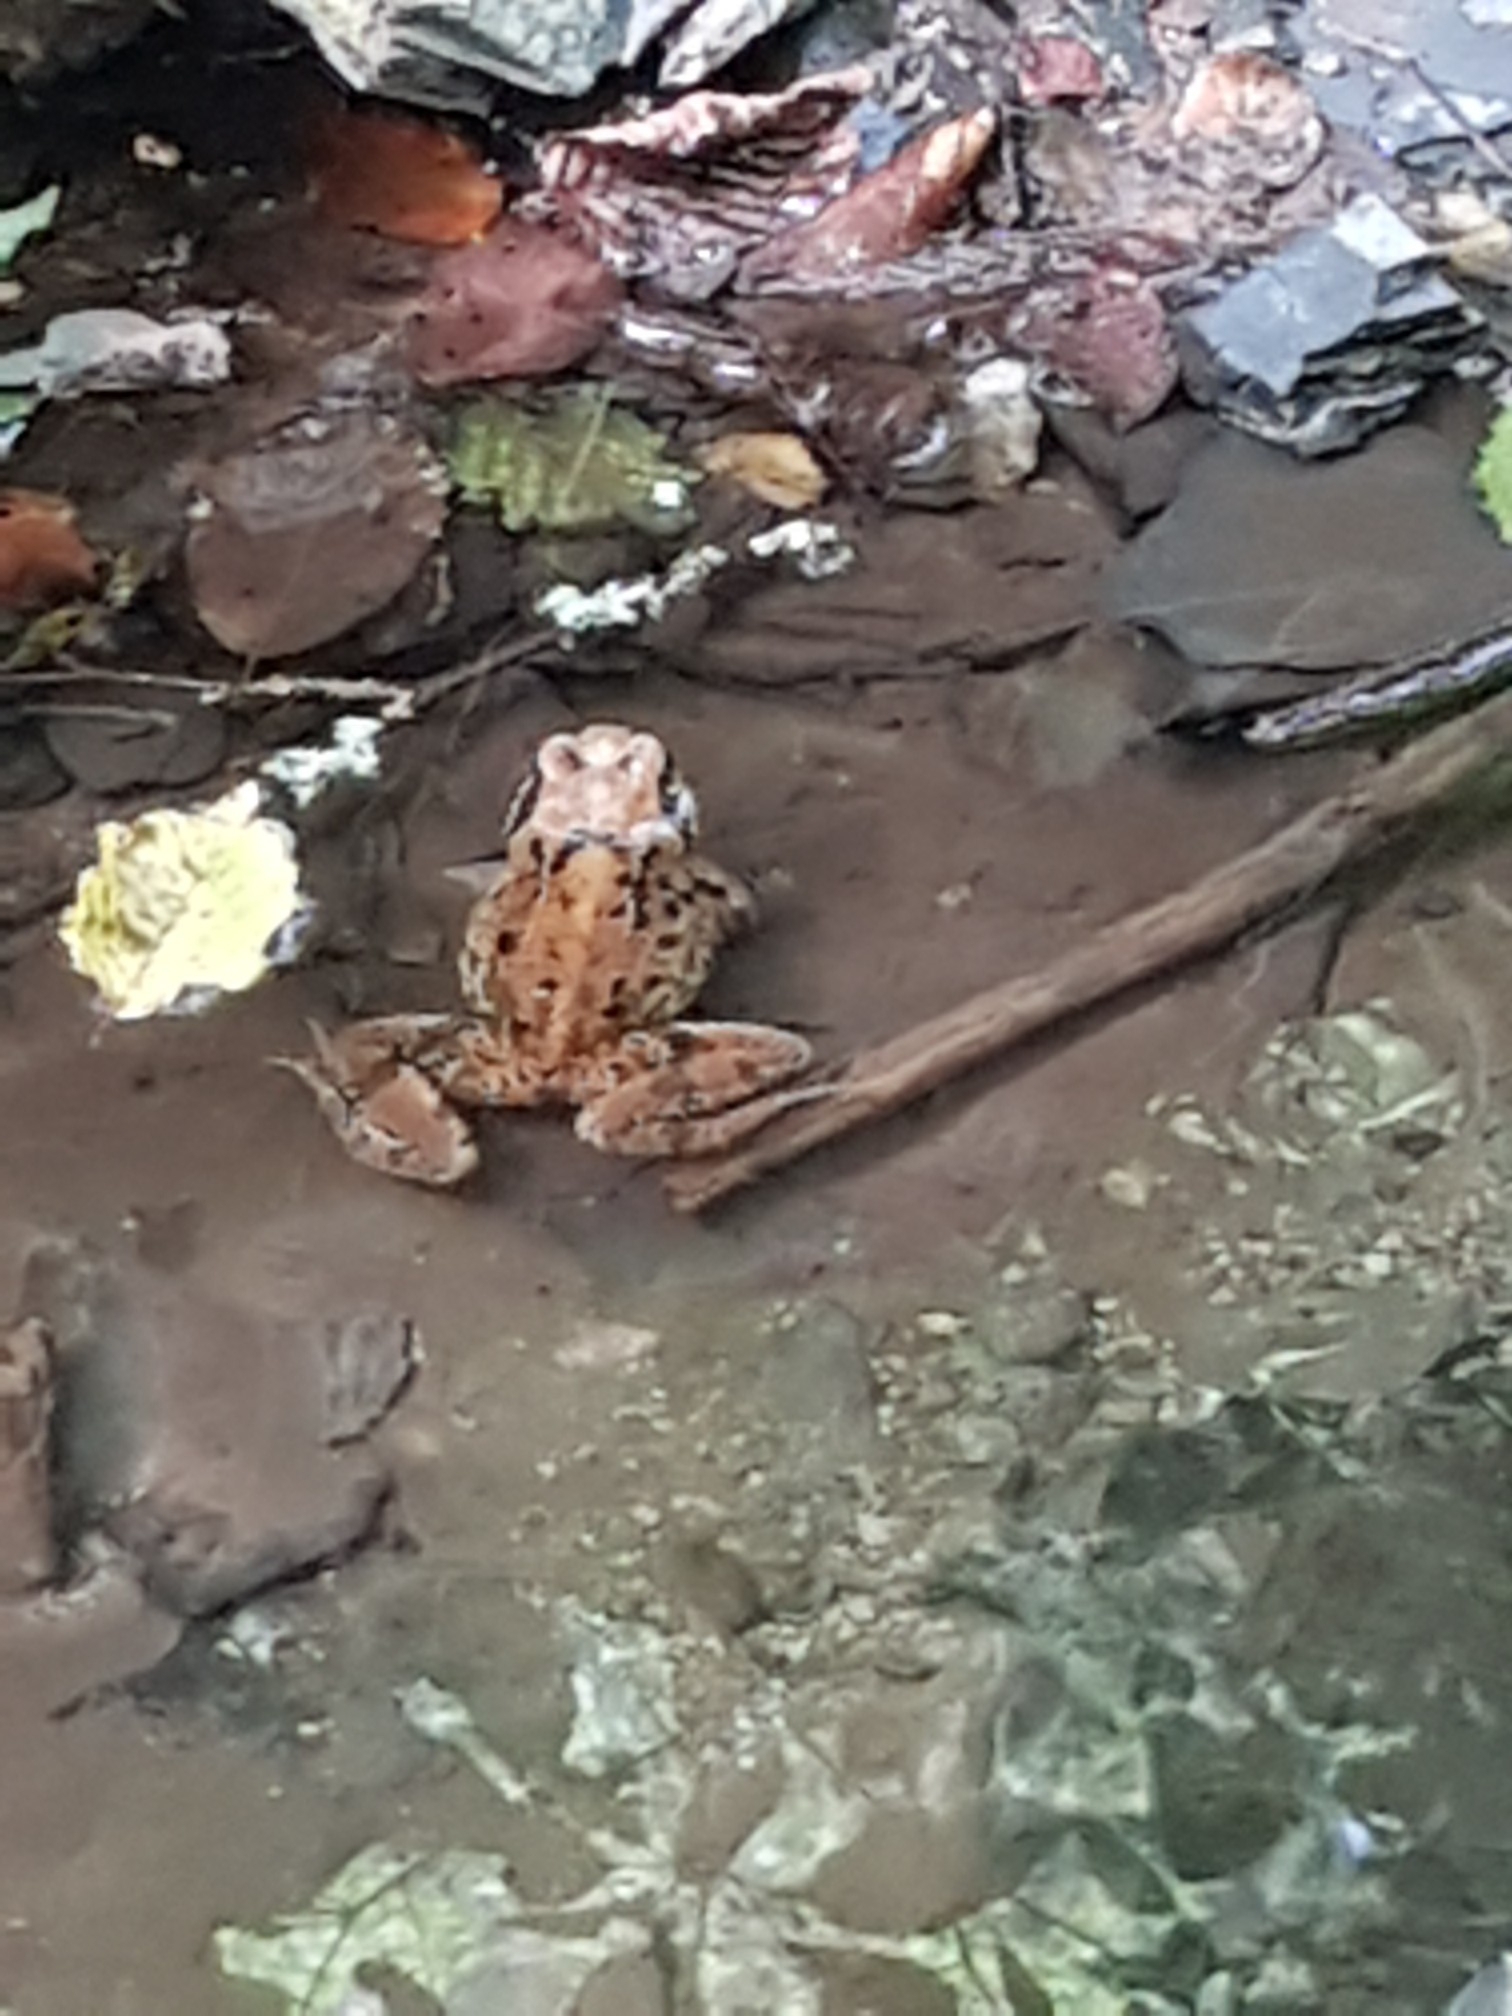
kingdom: Animalia
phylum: Chordata
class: Amphibia
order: Anura
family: Ranidae
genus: Rana
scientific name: Rana temporaria
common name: Common frog
